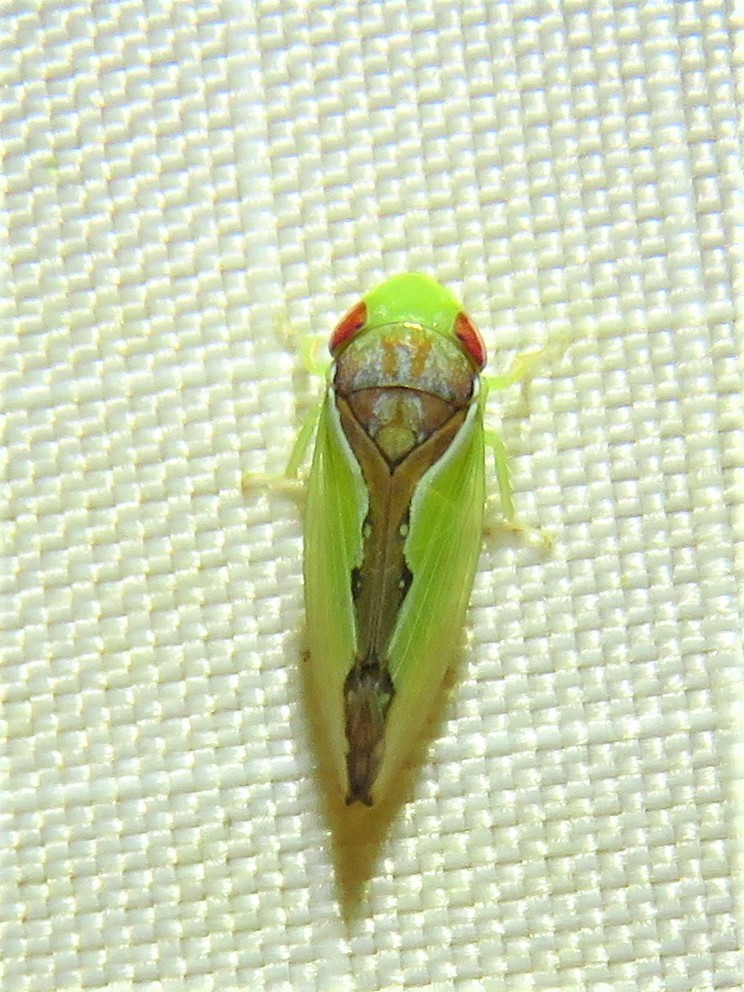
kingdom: Animalia
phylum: Arthropoda
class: Insecta
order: Hemiptera
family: Cicadellidae
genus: Omansobara ing
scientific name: Omansobara ing Omansobara palliolata
